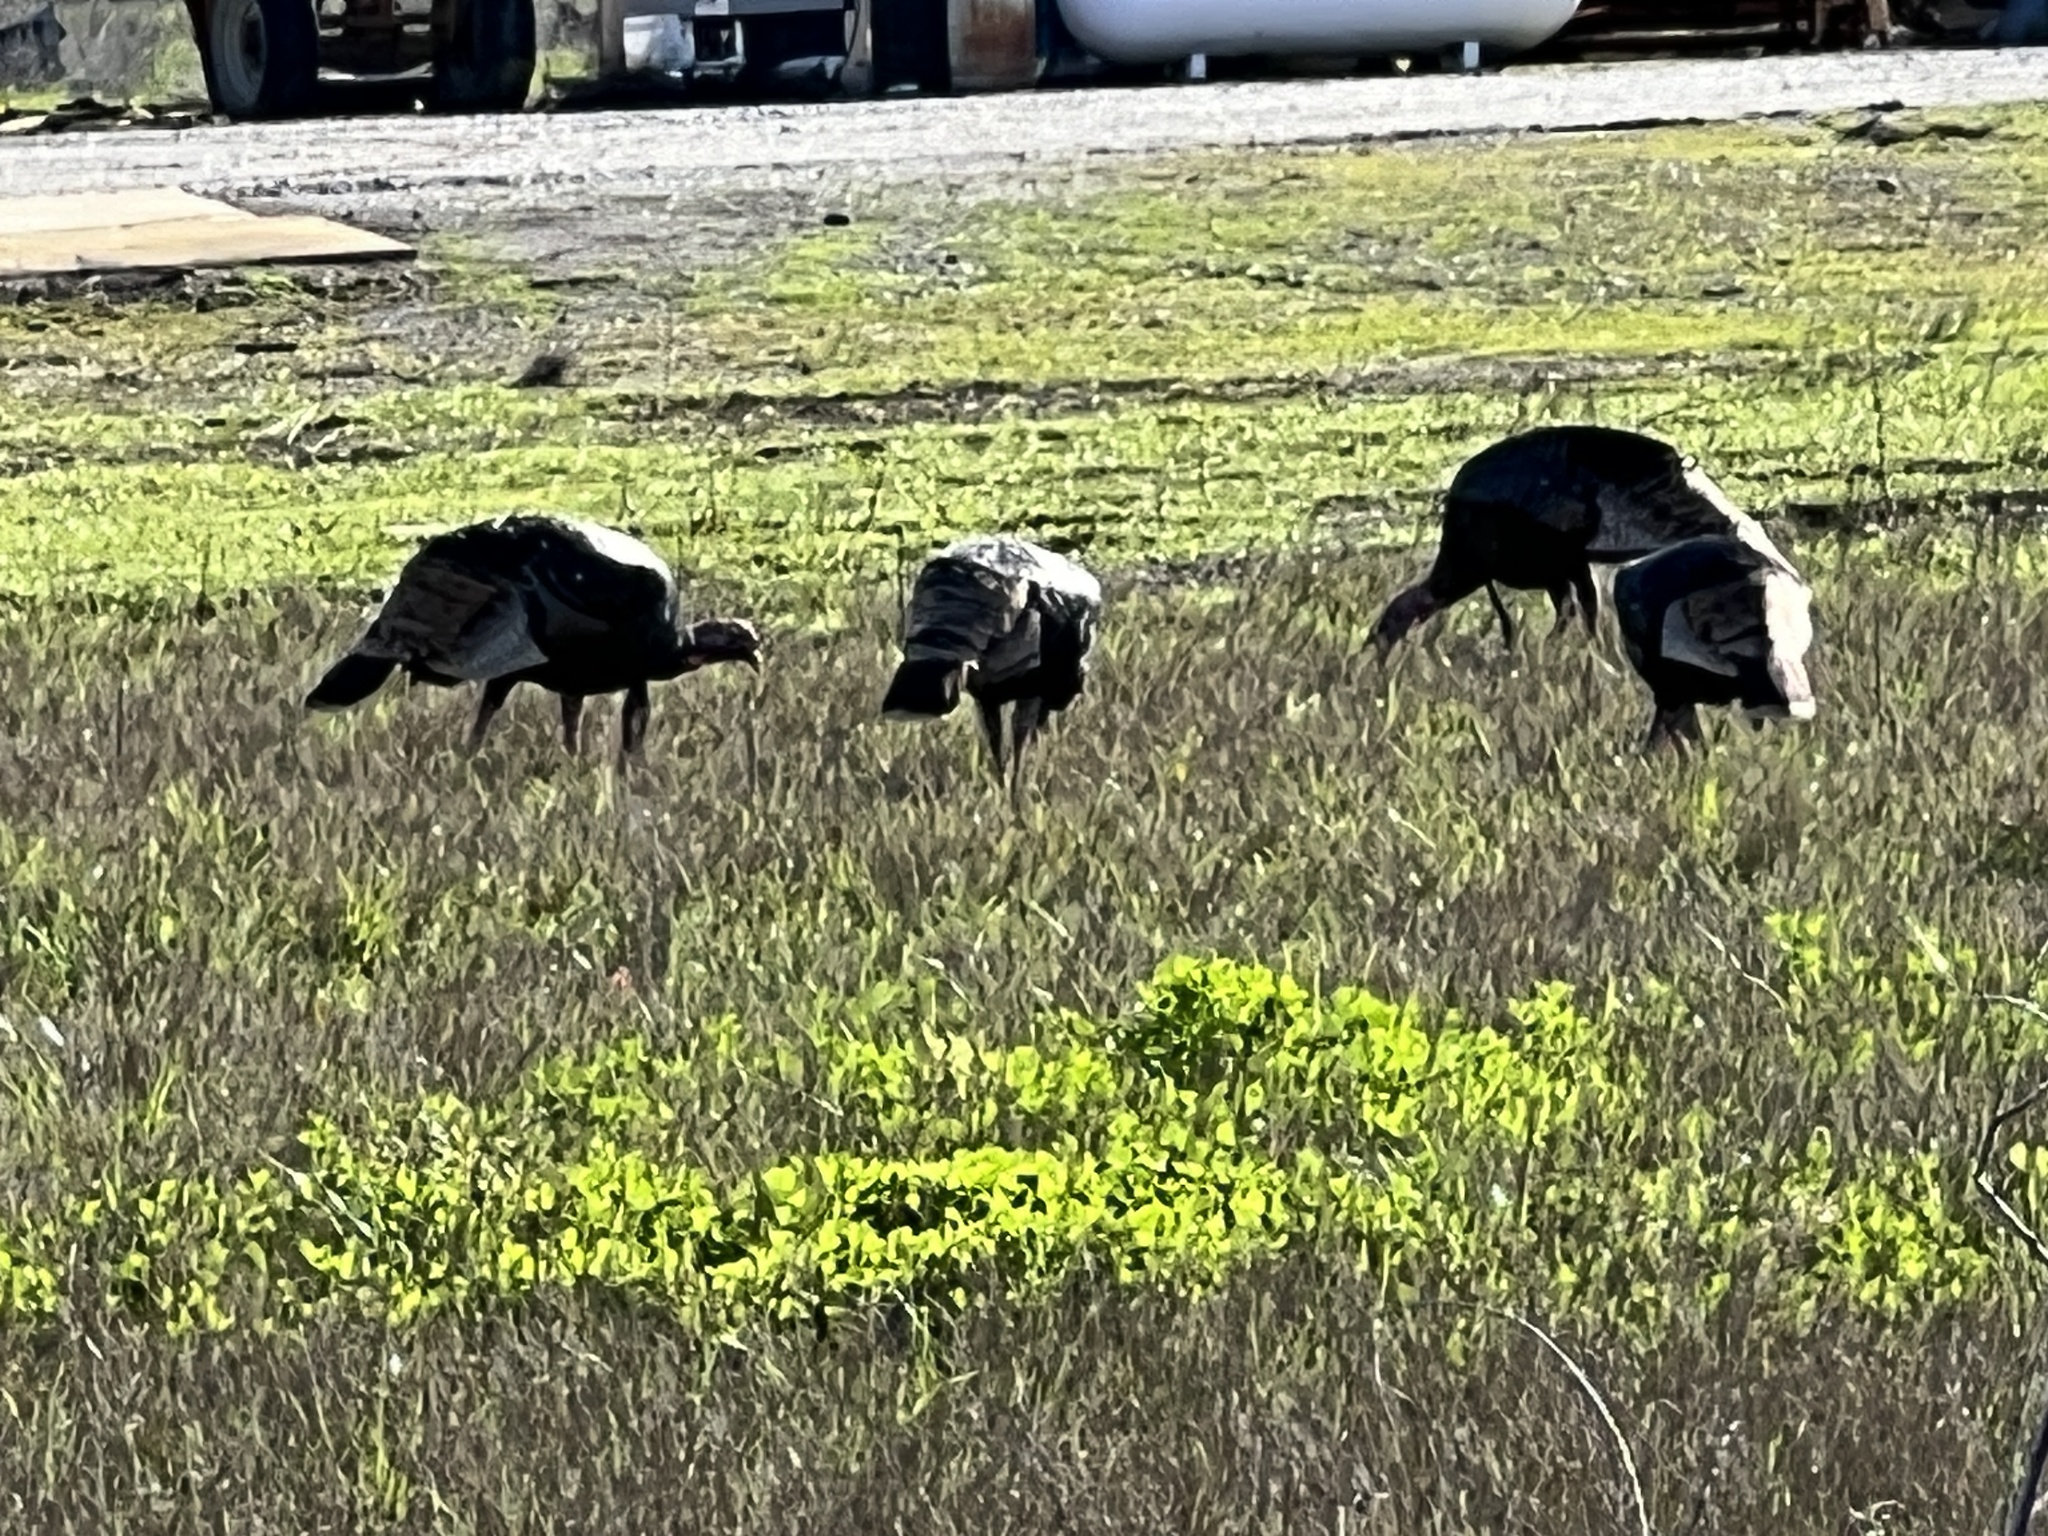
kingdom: Animalia
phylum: Chordata
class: Aves
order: Galliformes
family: Phasianidae
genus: Meleagris
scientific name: Meleagris gallopavo
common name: Wild turkey
